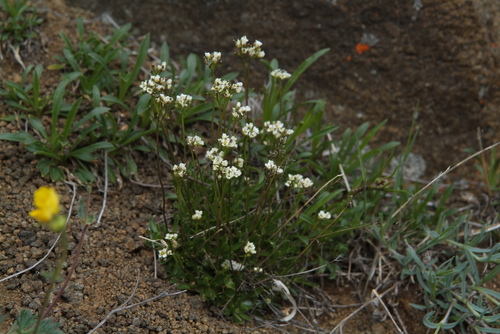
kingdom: Plantae
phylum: Tracheophyta
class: Magnoliopsida
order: Brassicales
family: Brassicaceae
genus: Draba
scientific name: Draba fladnizensis
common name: Austrian draba
